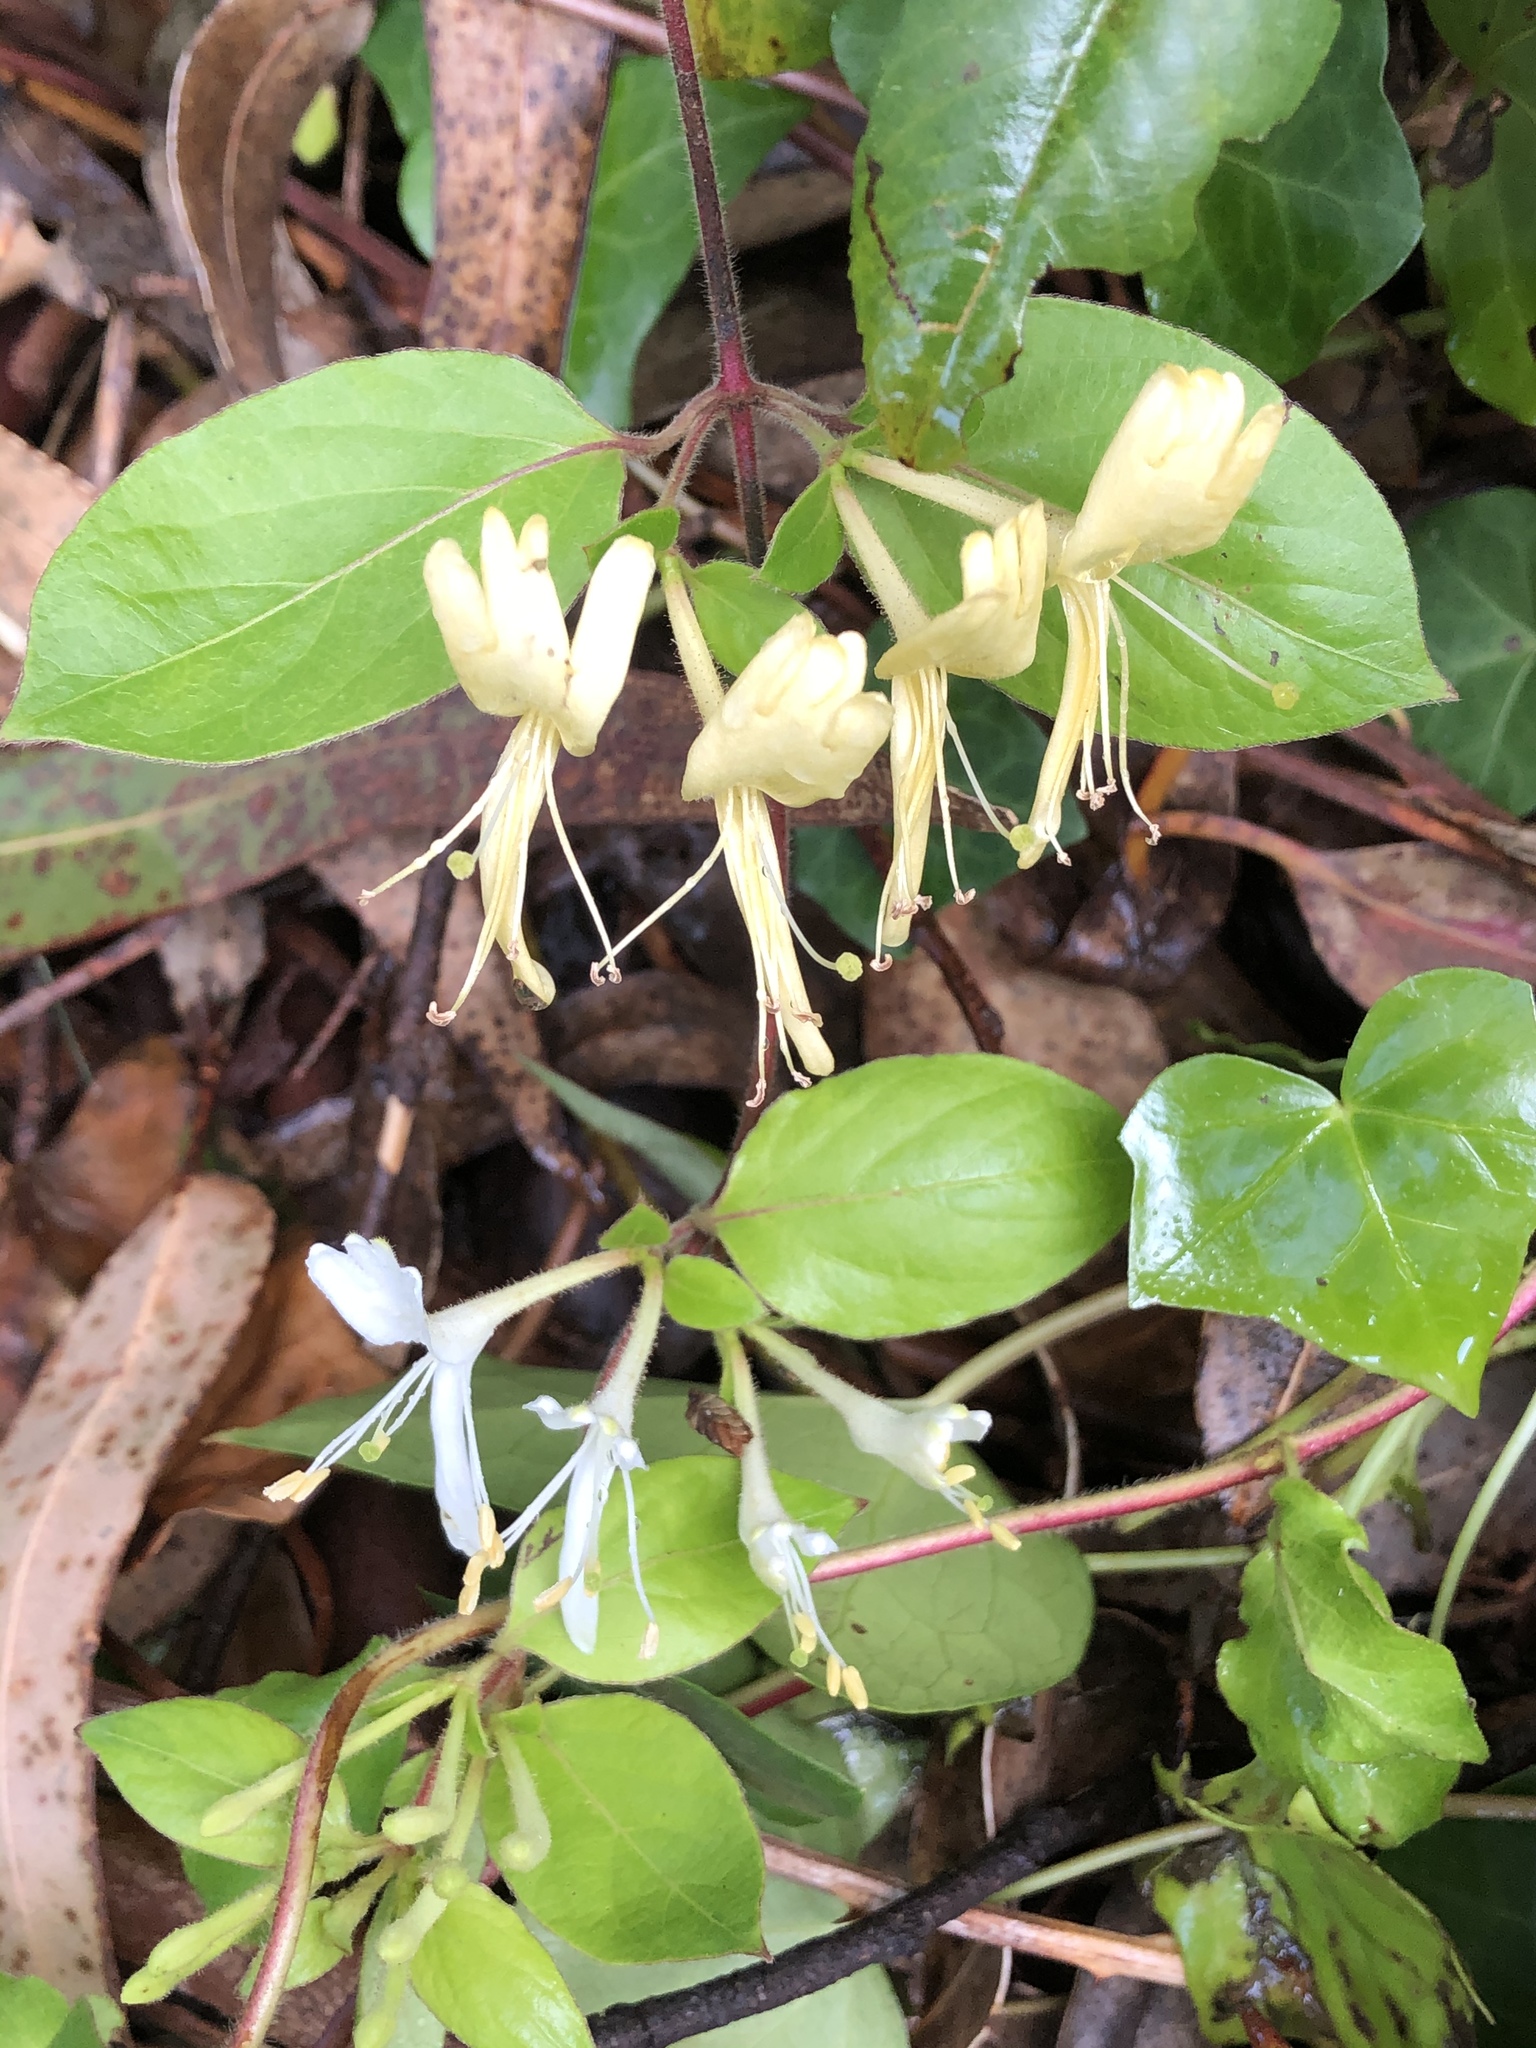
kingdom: Plantae
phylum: Tracheophyta
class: Magnoliopsida
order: Dipsacales
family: Caprifoliaceae
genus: Lonicera
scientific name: Lonicera japonica
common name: Japanese honeysuckle
